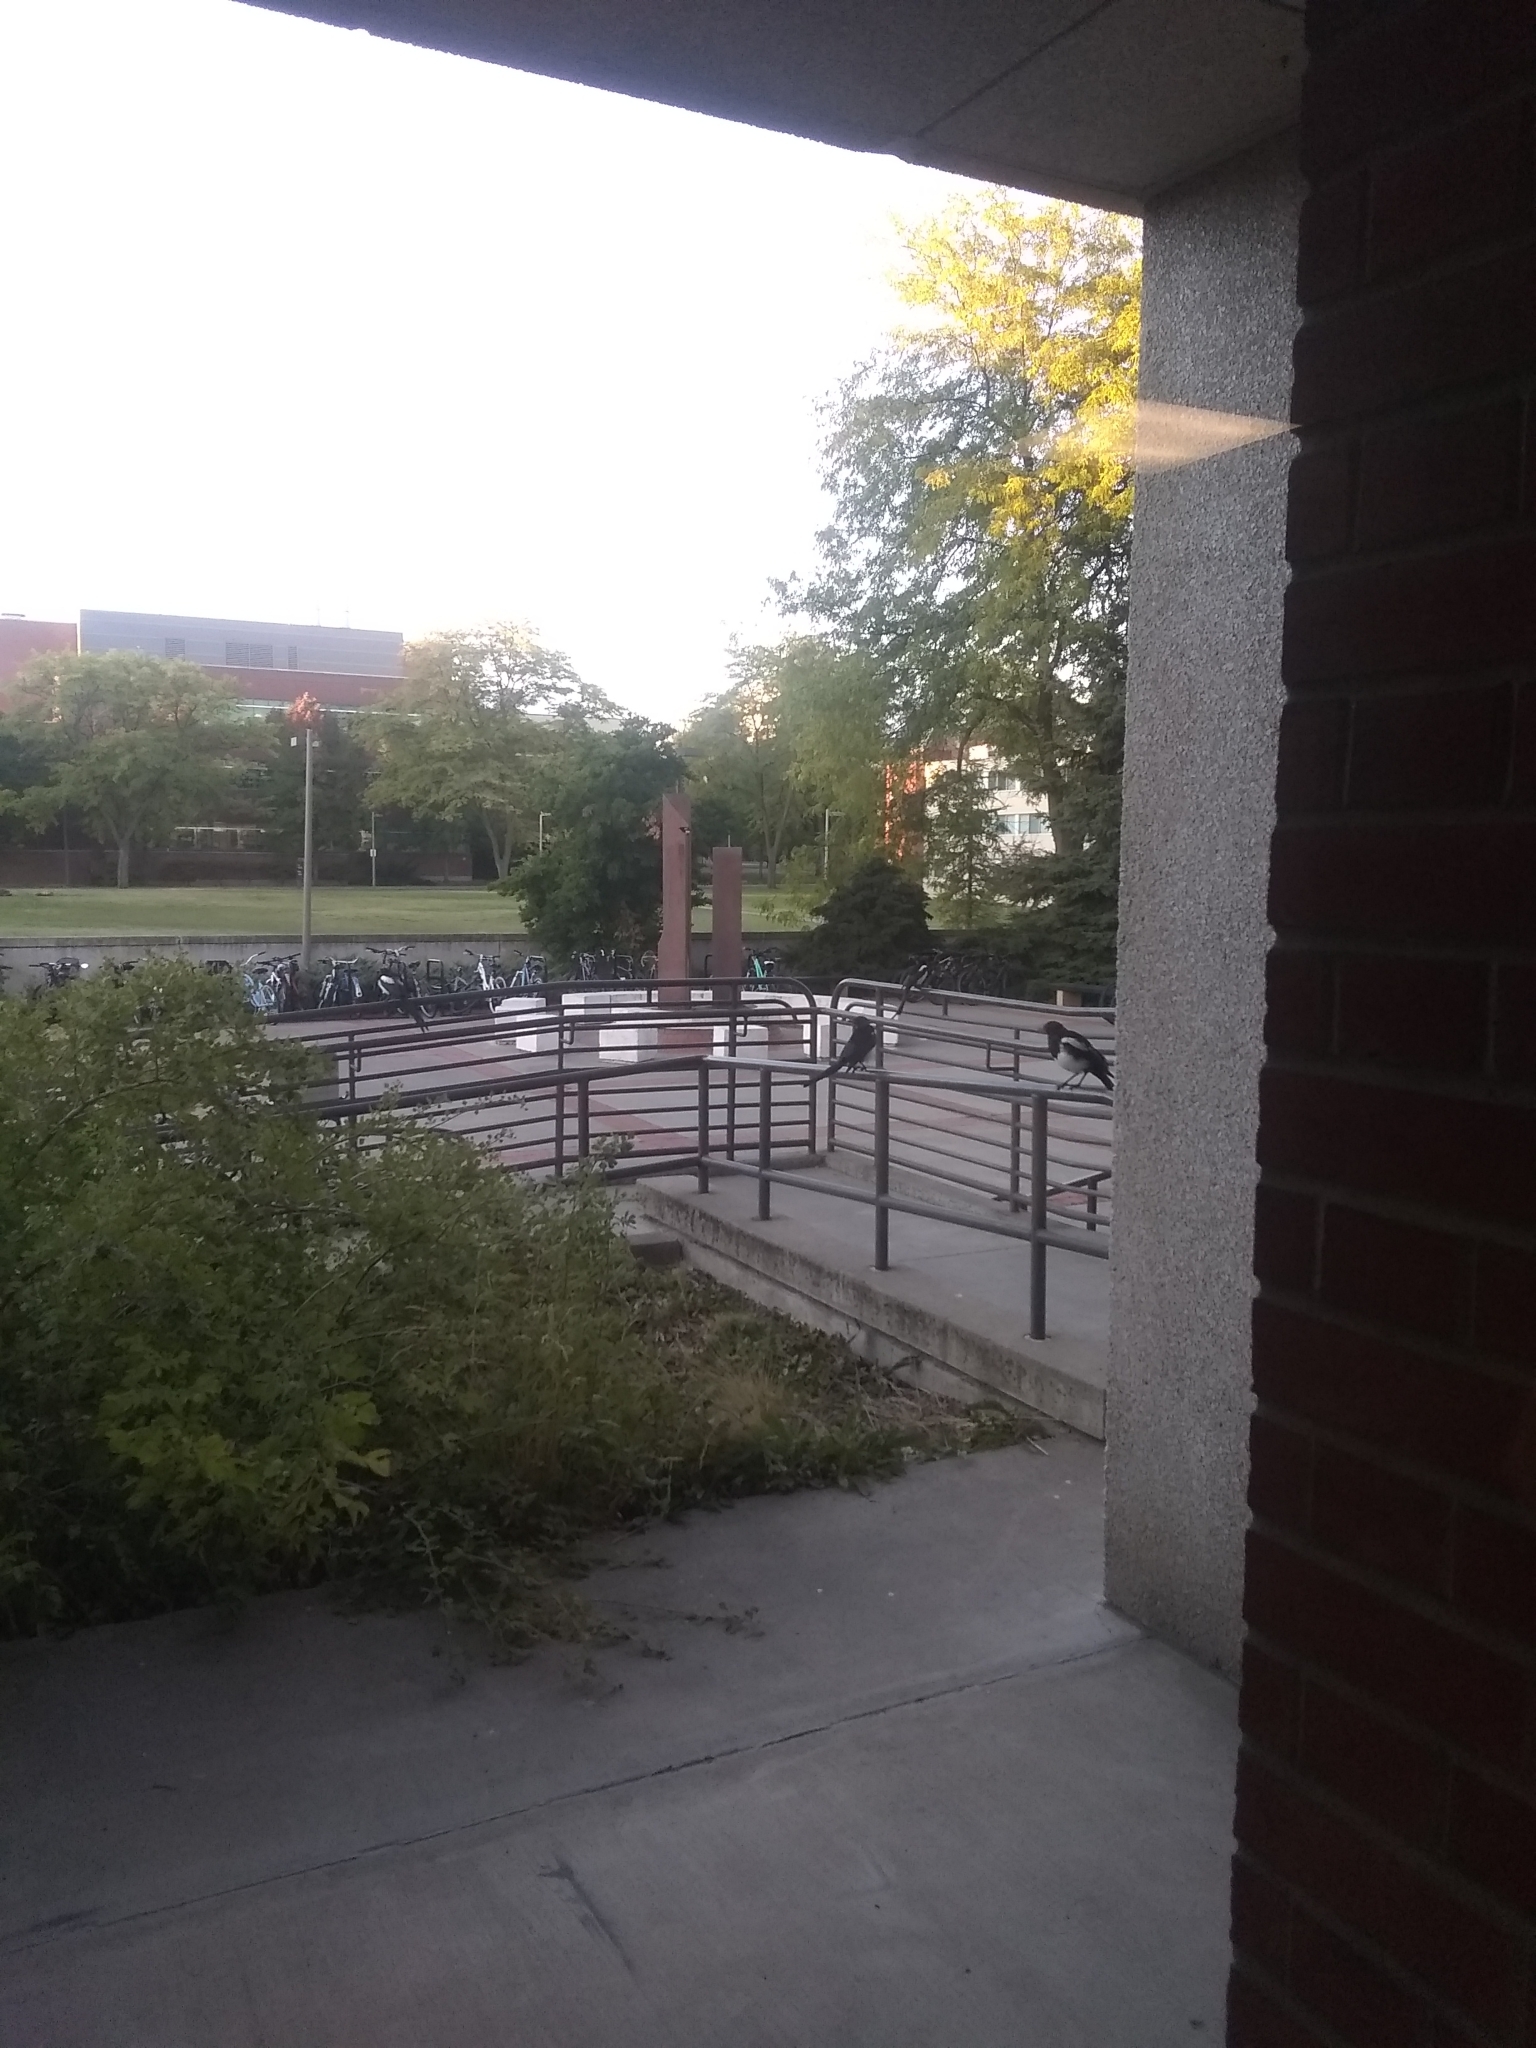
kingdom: Animalia
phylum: Chordata
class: Aves
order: Passeriformes
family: Corvidae
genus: Pica
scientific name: Pica hudsonia
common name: Black-billed magpie
